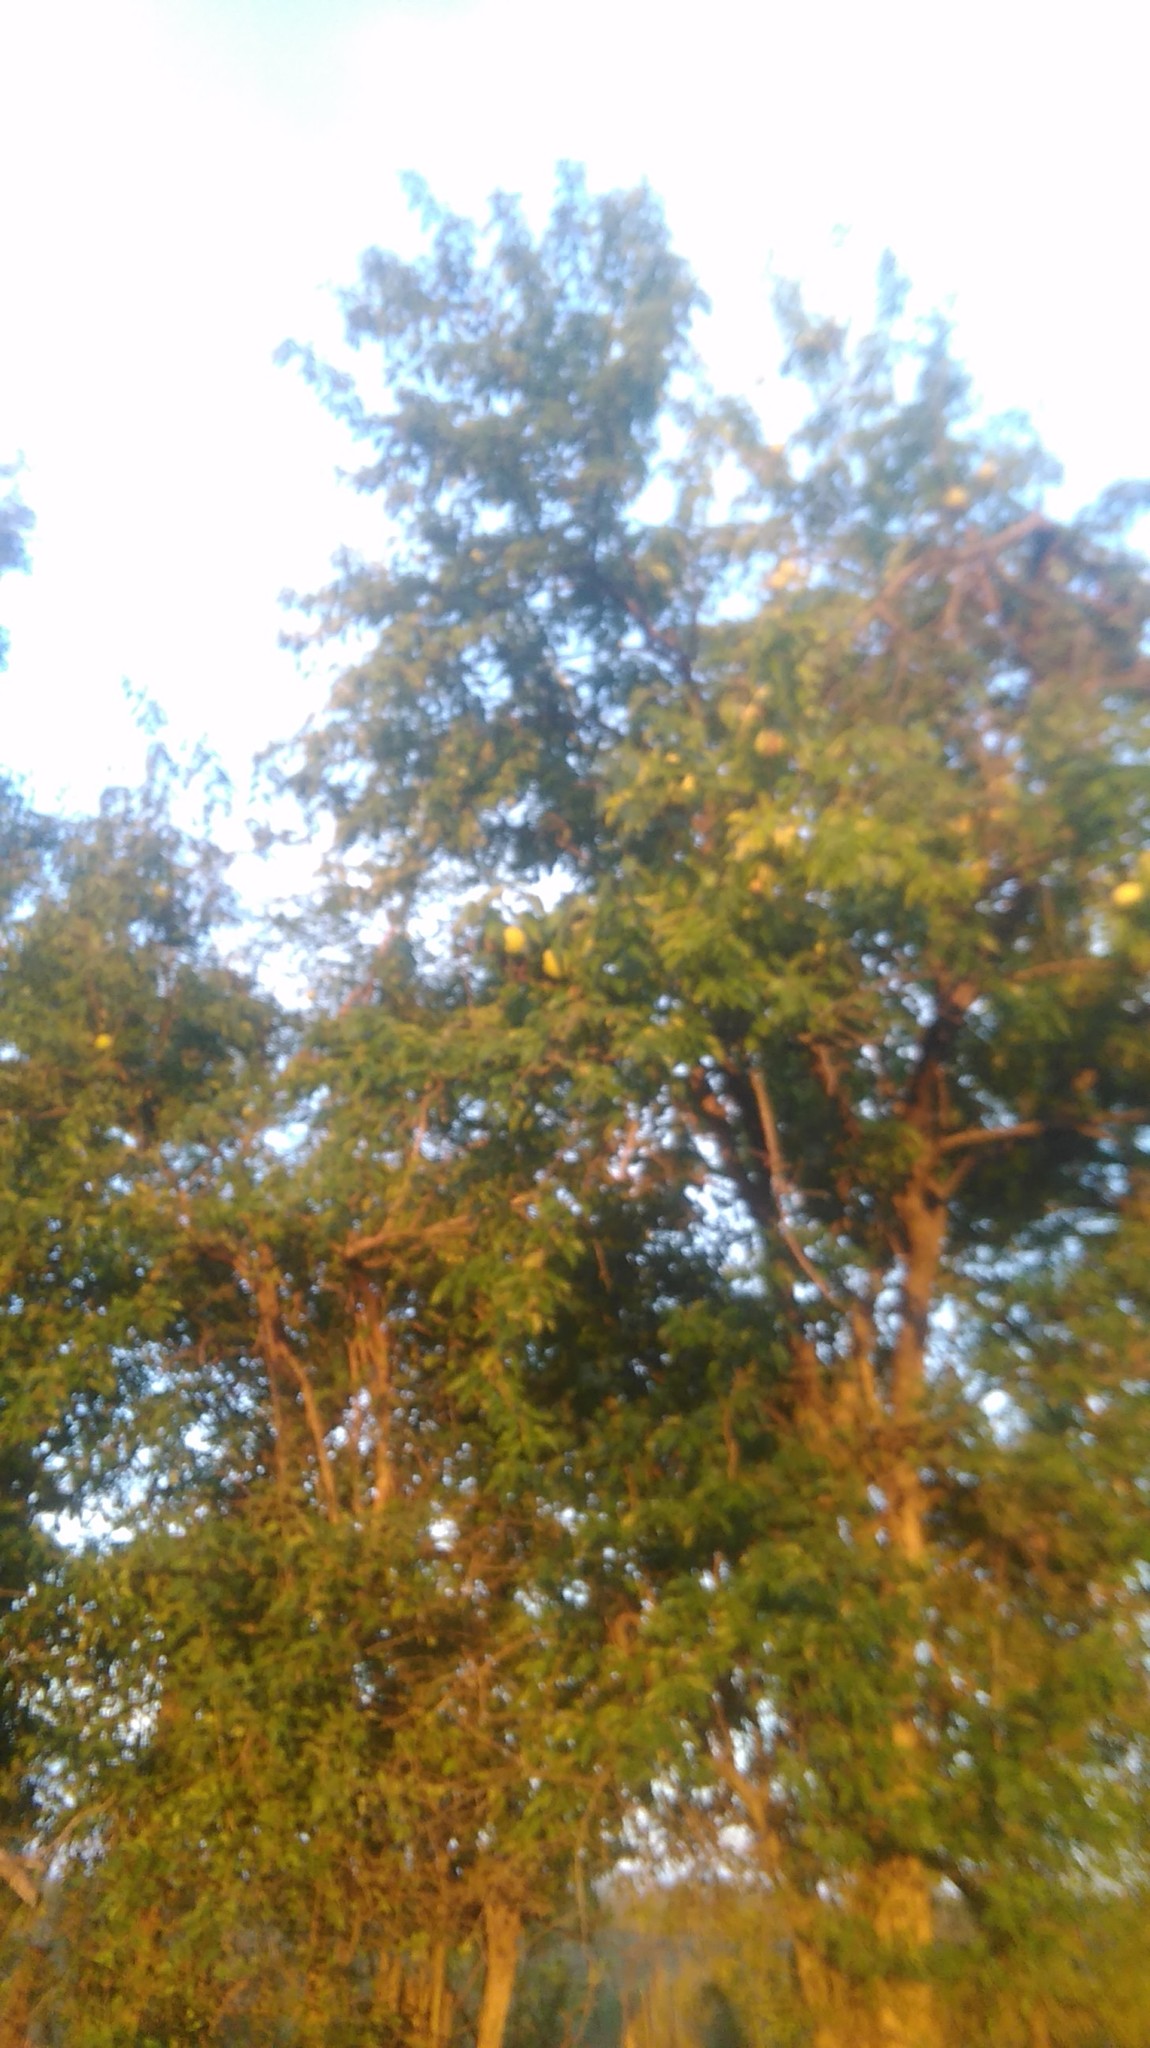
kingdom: Plantae
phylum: Tracheophyta
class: Magnoliopsida
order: Rosales
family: Moraceae
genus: Maclura
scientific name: Maclura pomifera
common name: Osage-orange
